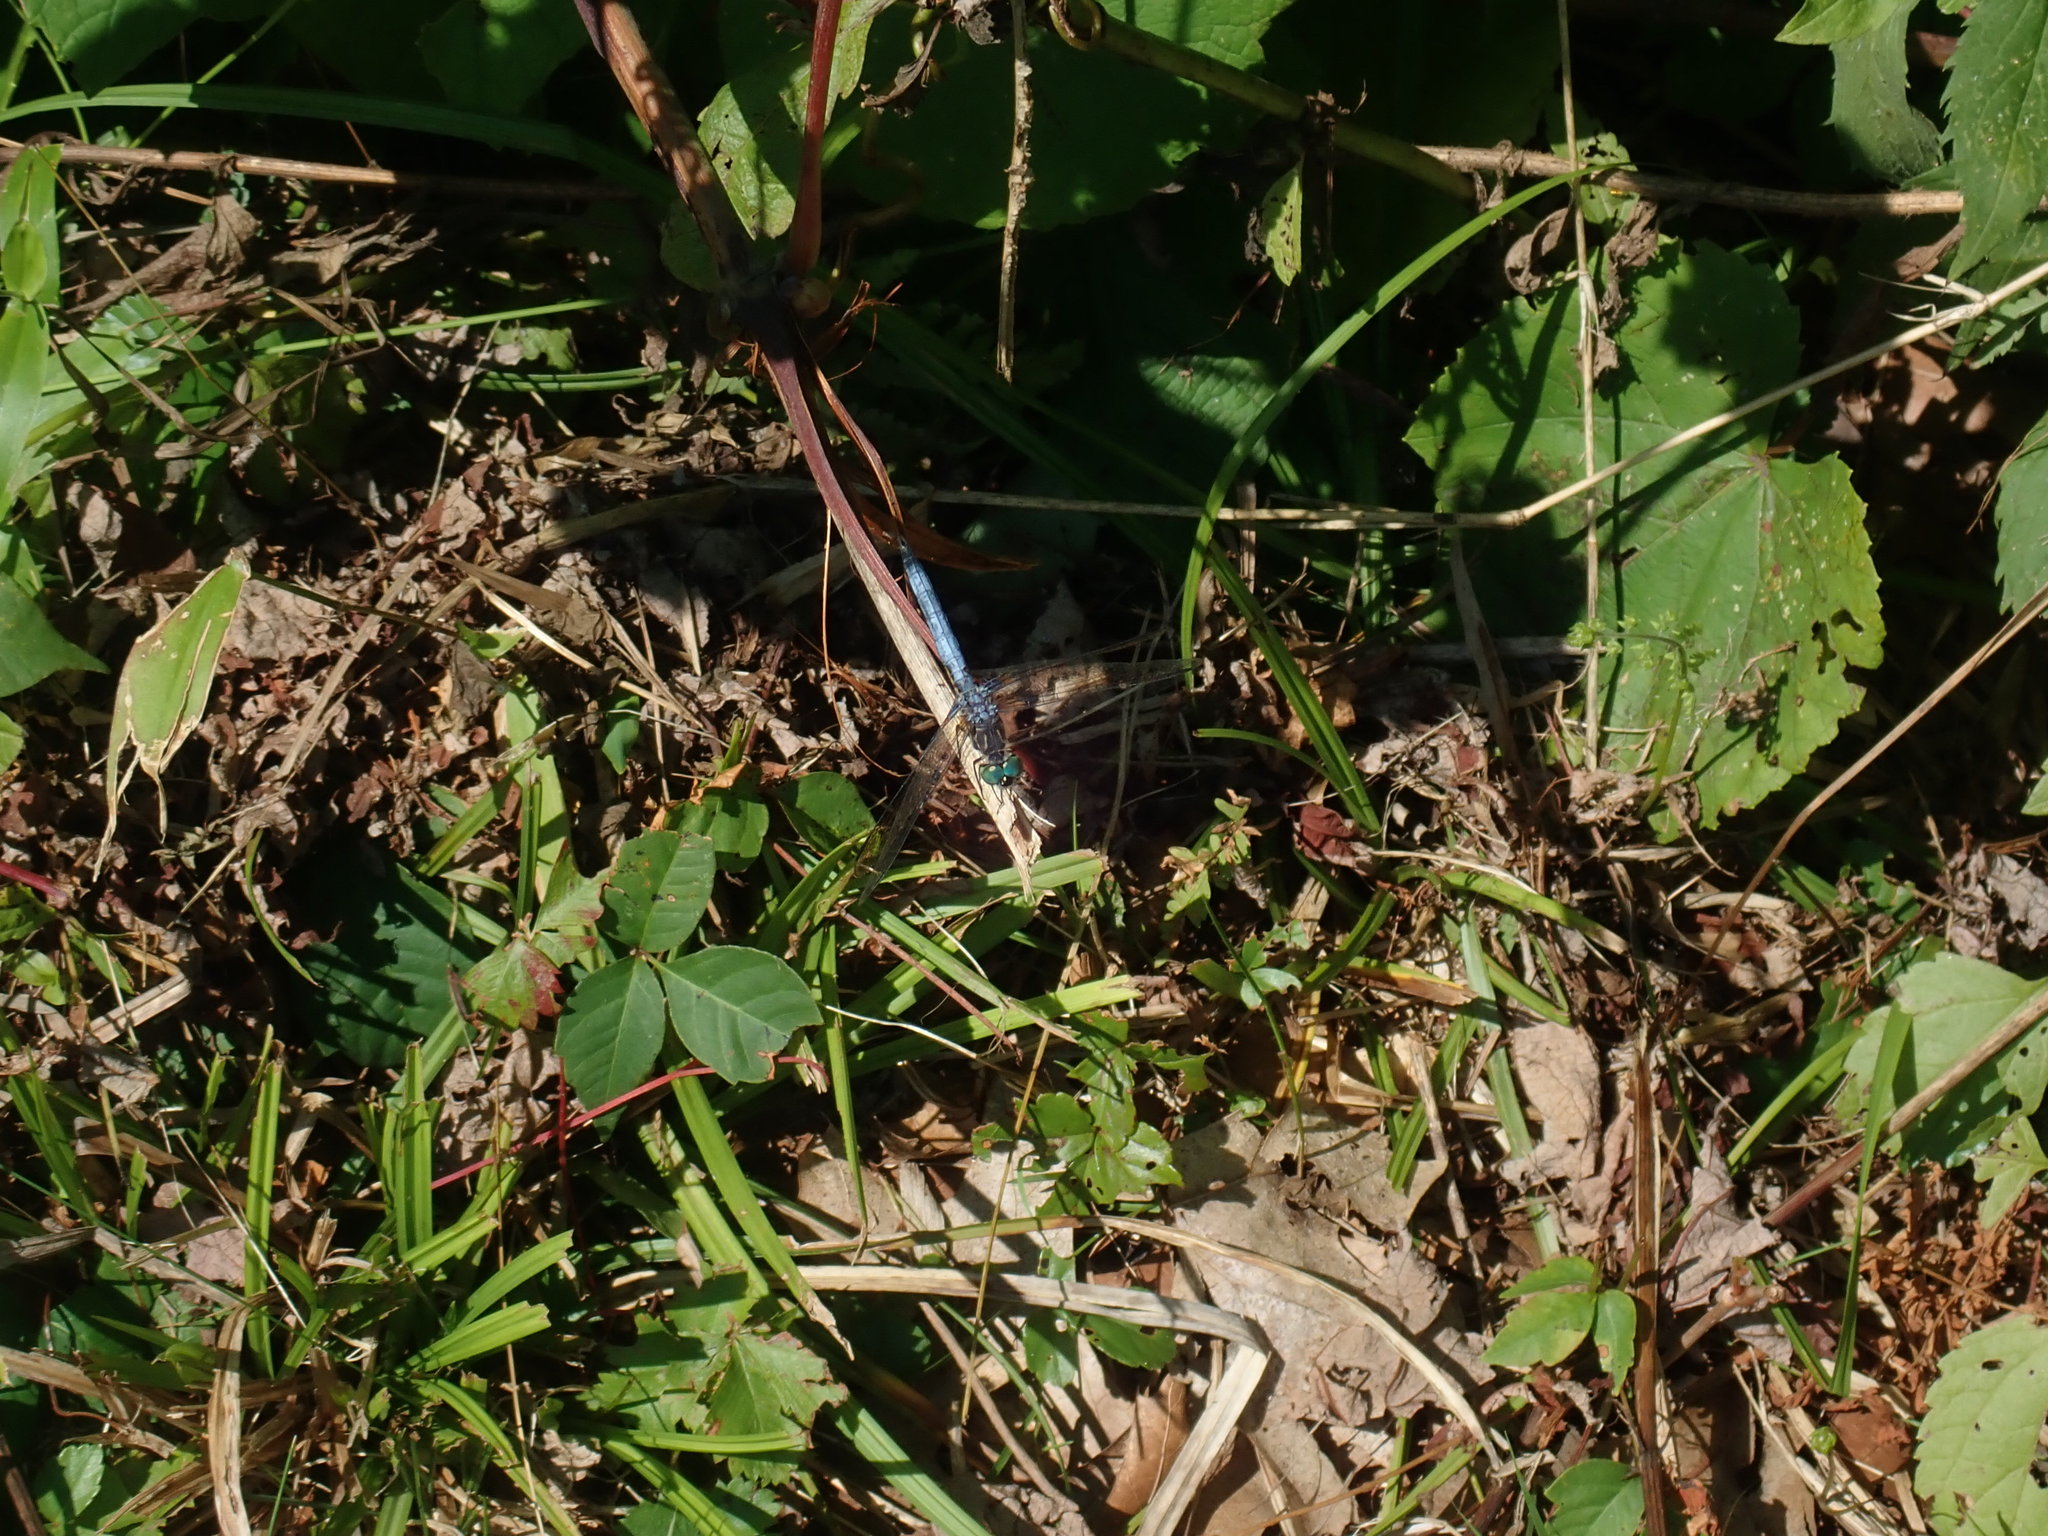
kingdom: Animalia
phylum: Arthropoda
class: Insecta
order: Odonata
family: Libellulidae
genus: Pachydiplax
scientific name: Pachydiplax longipennis
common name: Blue dasher
